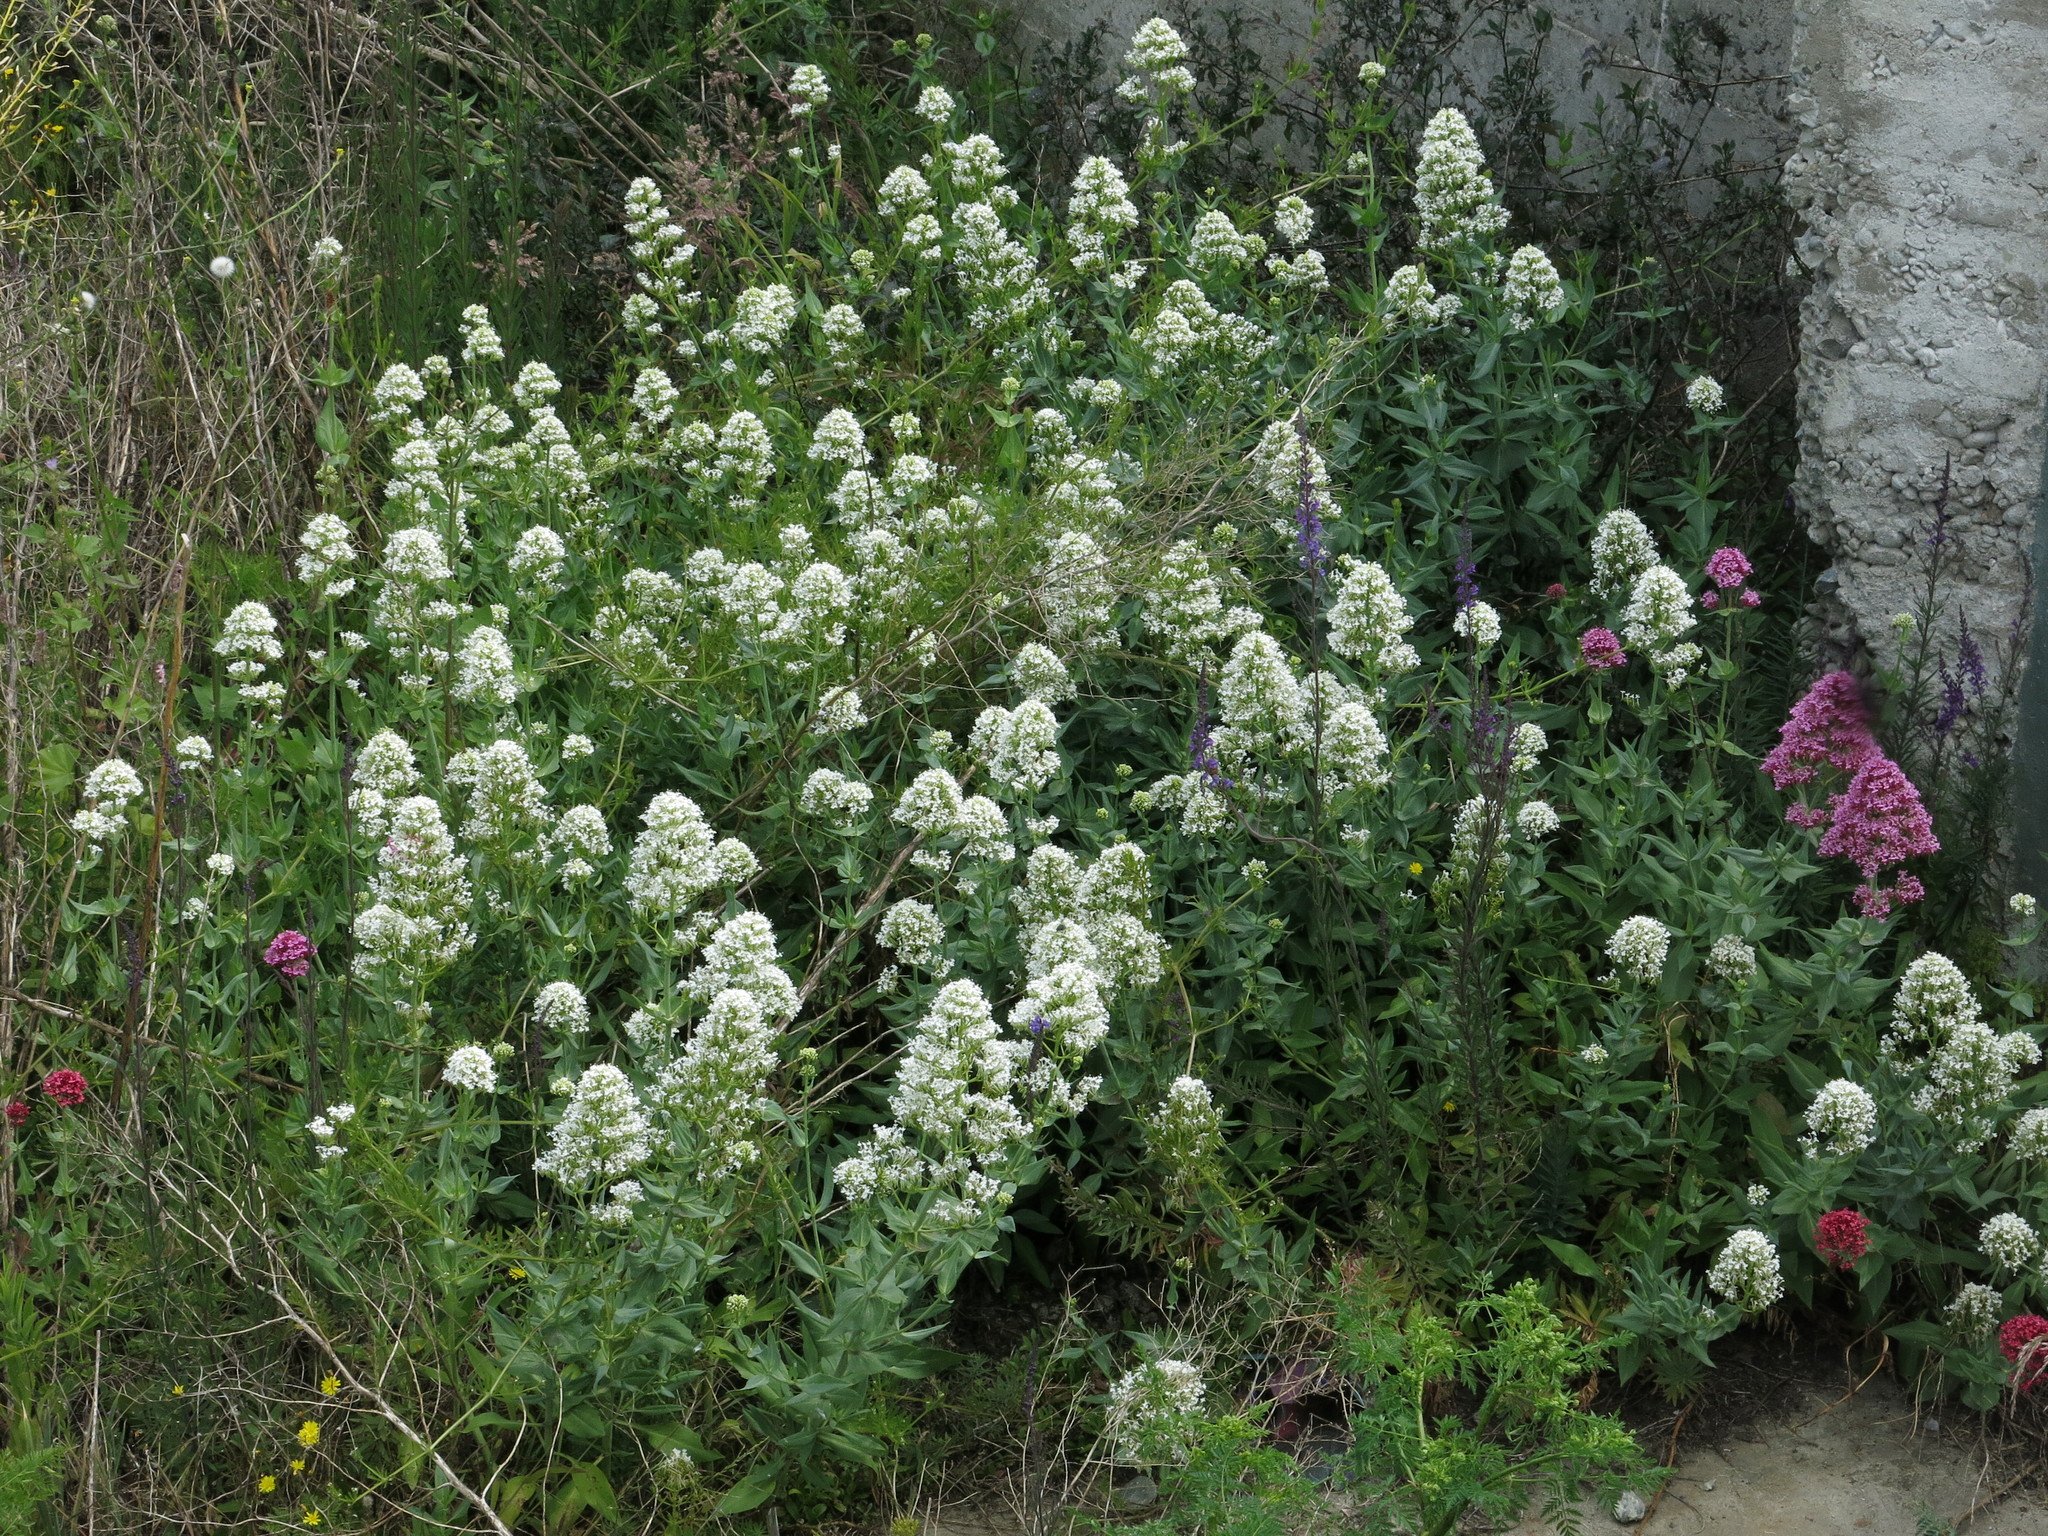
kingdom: Plantae
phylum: Tracheophyta
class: Magnoliopsida
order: Dipsacales
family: Caprifoliaceae
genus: Centranthus
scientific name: Centranthus ruber
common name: Red valerian
